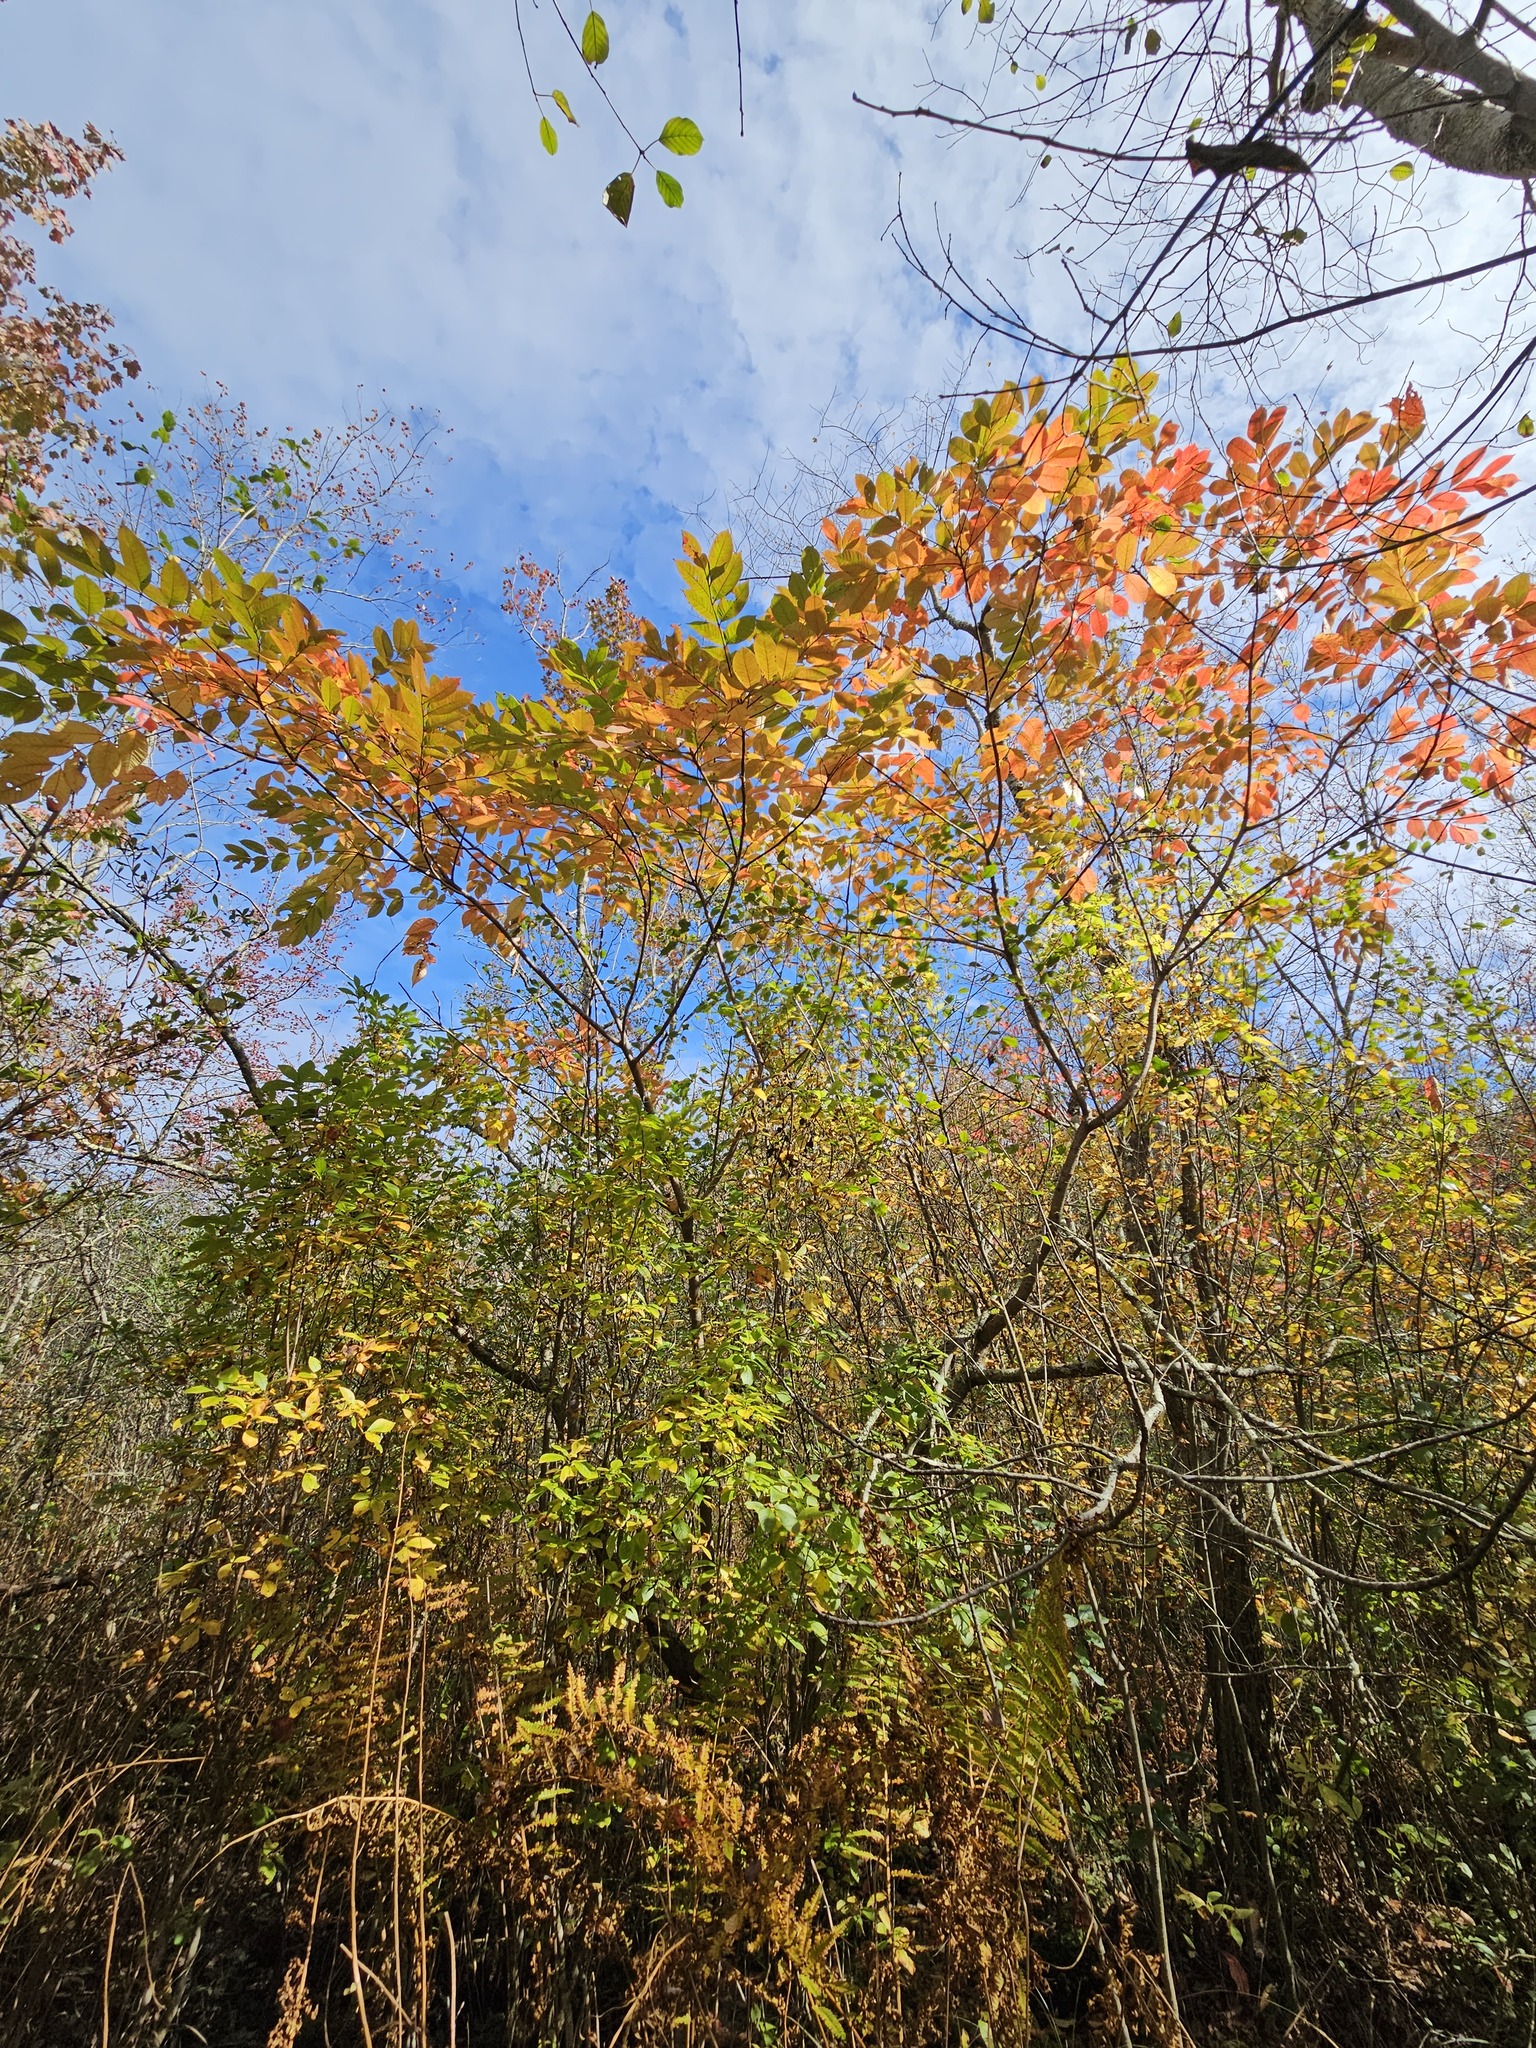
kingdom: Plantae
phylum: Tracheophyta
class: Magnoliopsida
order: Sapindales
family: Anacardiaceae
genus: Toxicodendron
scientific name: Toxicodendron vernix
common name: Poison sumac
